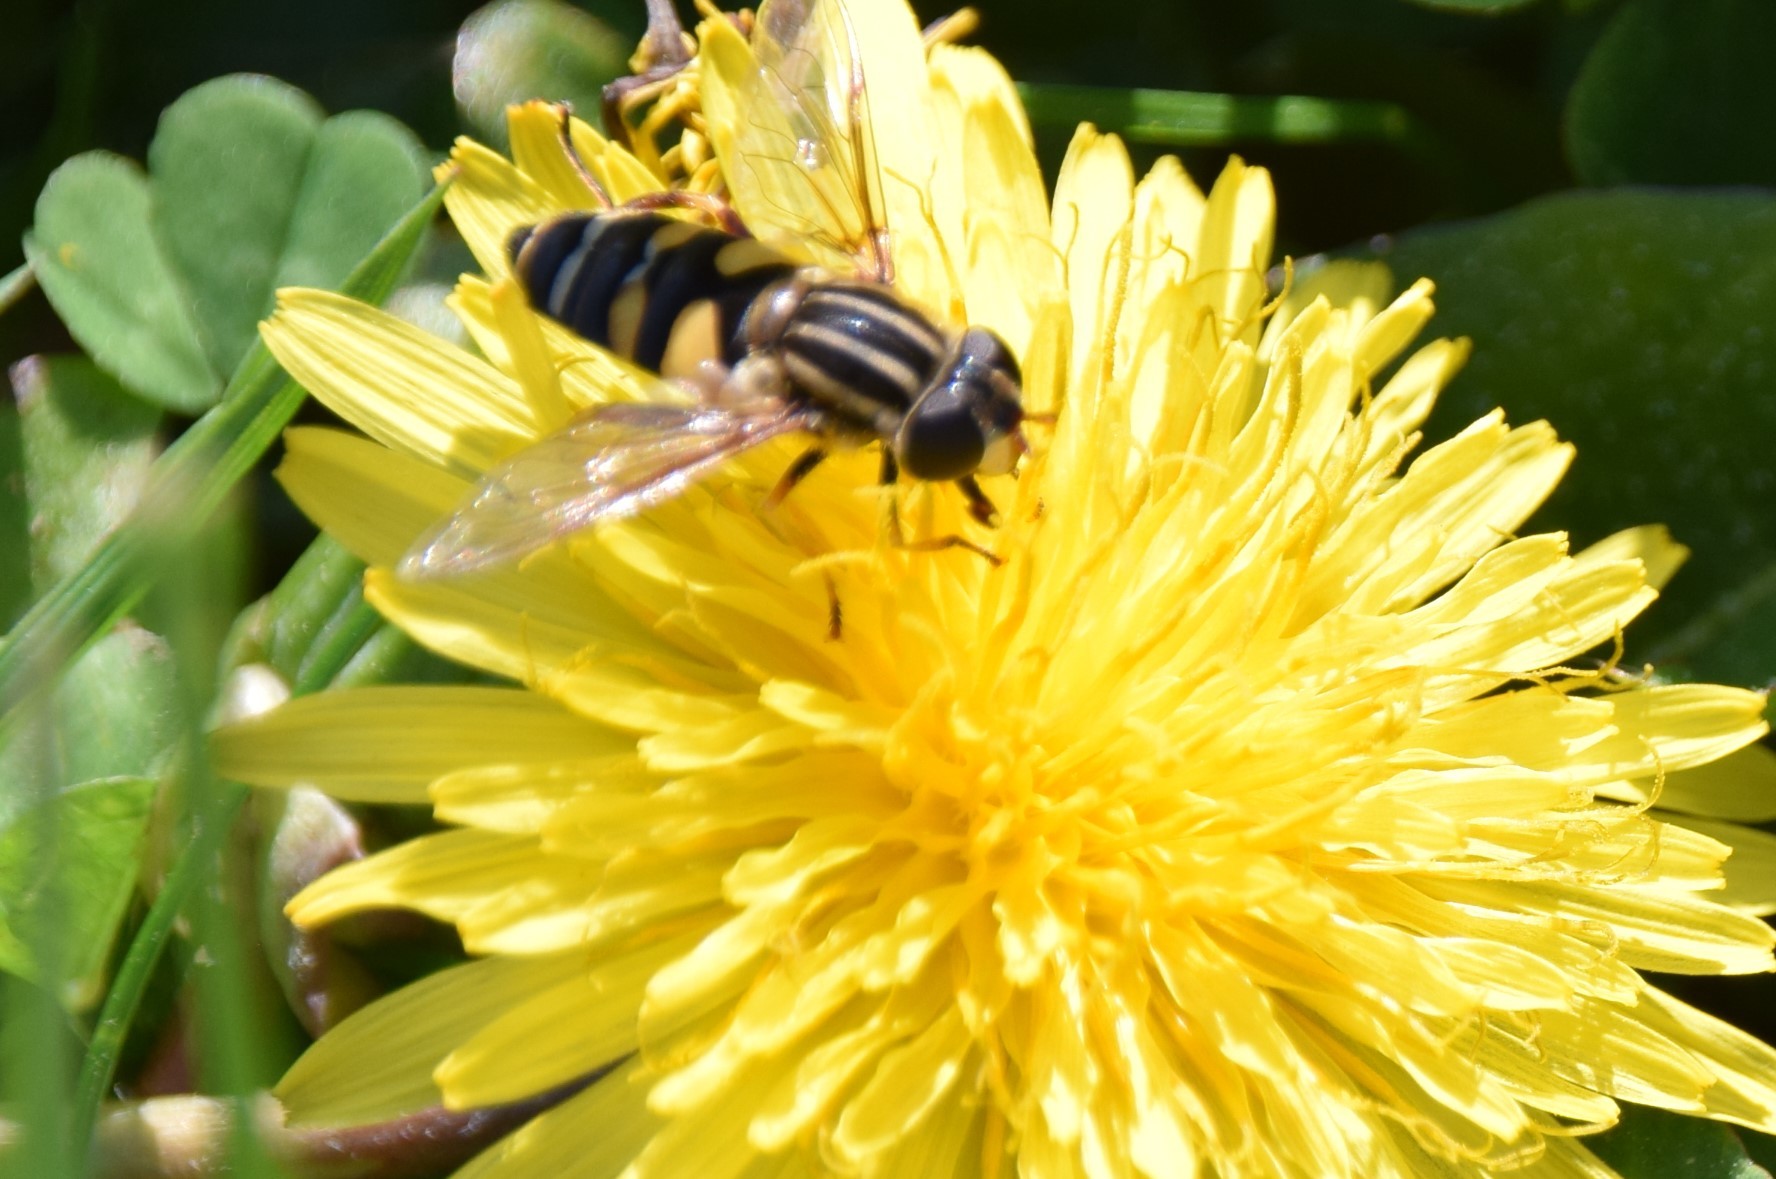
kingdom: Animalia
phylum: Arthropoda
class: Insecta
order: Diptera
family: Syrphidae
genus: Helophilus
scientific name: Helophilus fasciatus
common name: Narrow-headed marsh fly
